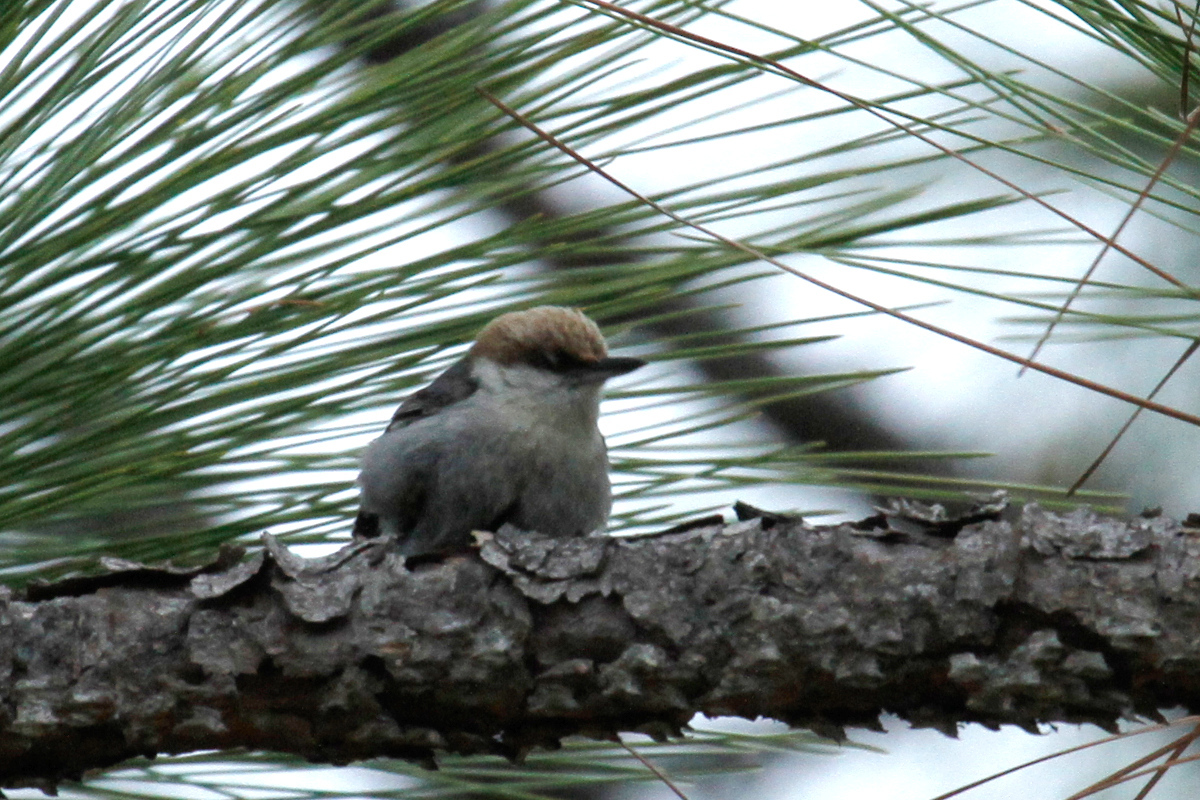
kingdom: Animalia
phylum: Chordata
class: Aves
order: Passeriformes
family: Sittidae
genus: Sitta
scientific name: Sitta pusilla
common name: Brown-headed nuthatch
